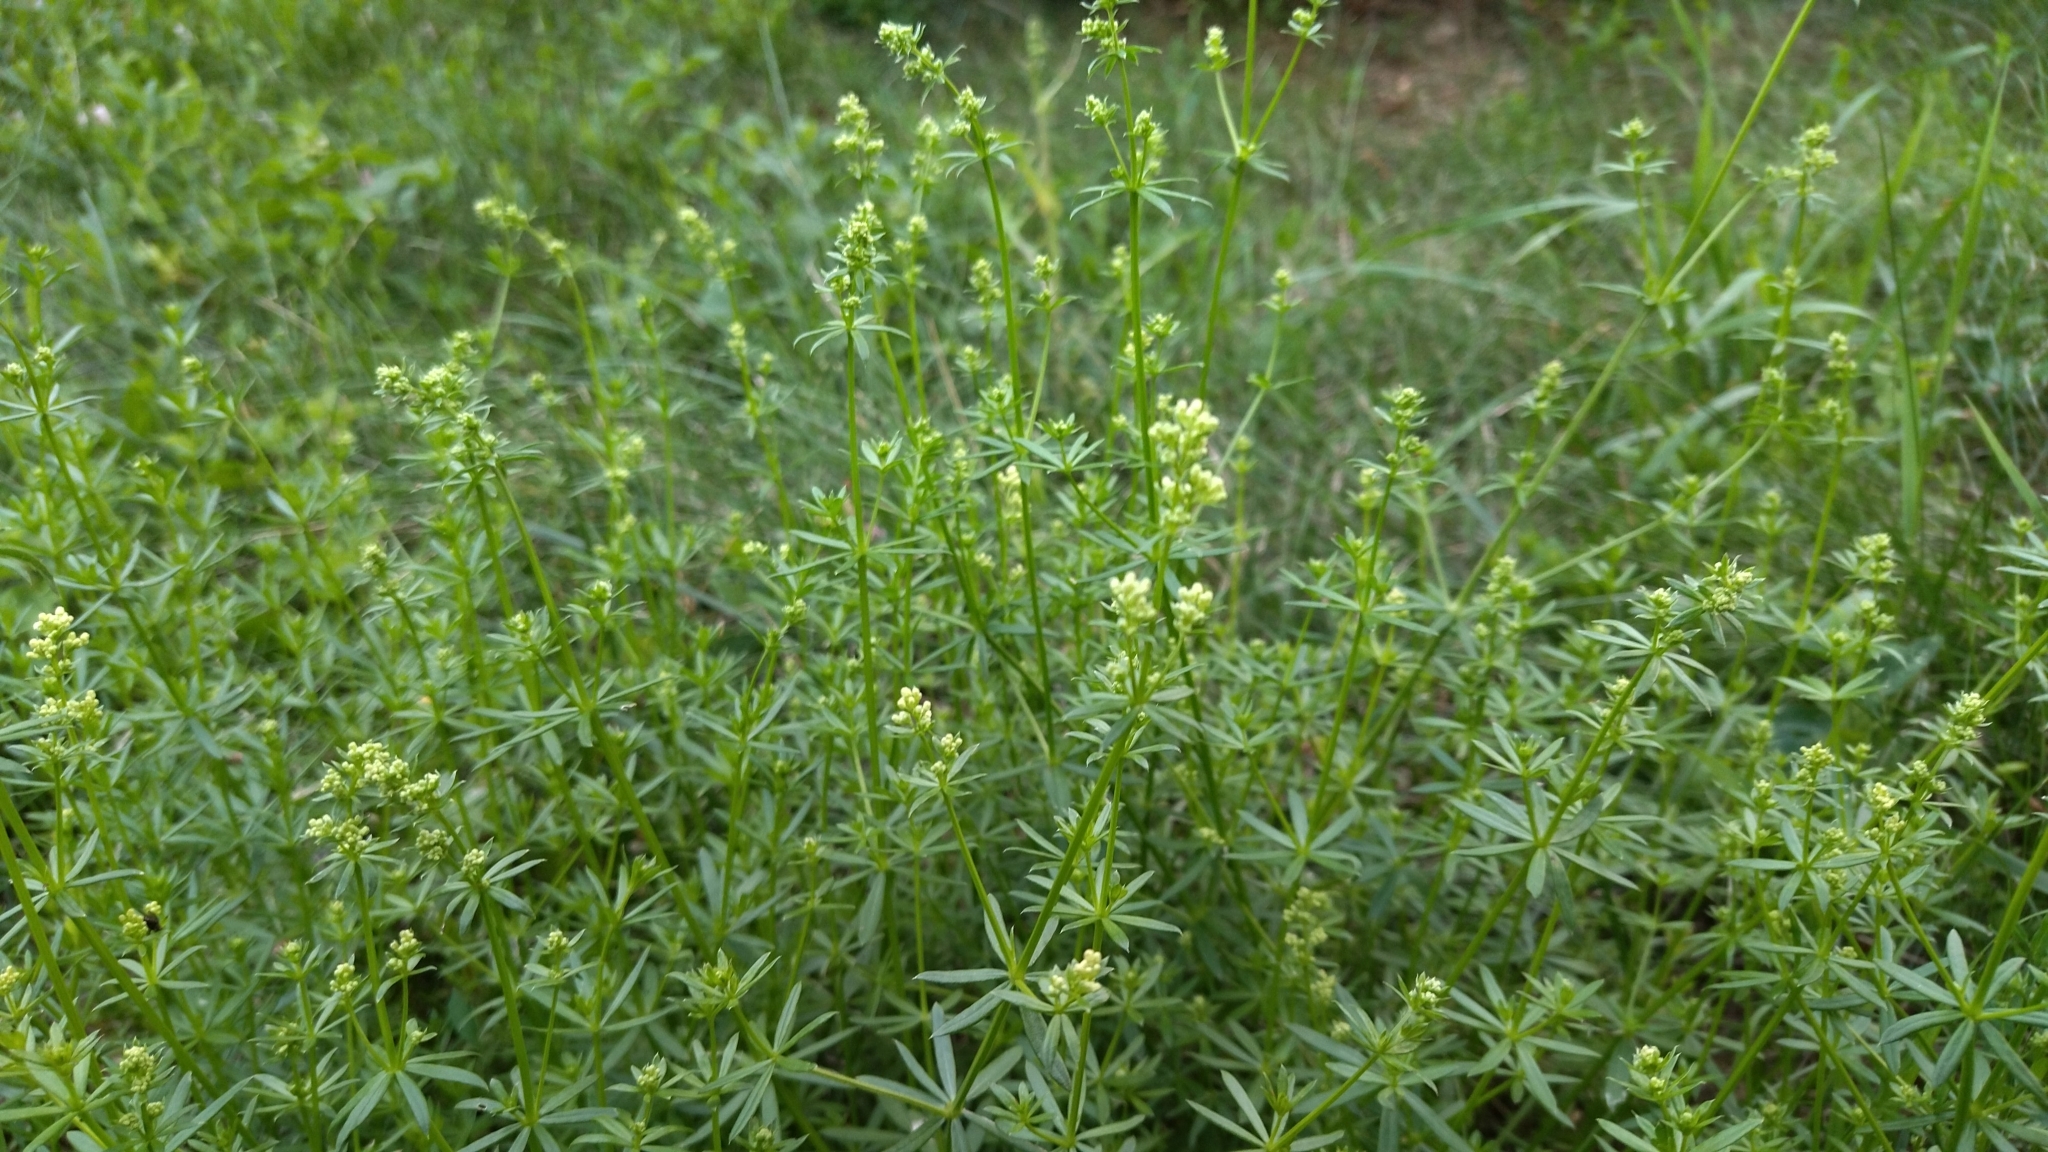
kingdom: Plantae
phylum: Tracheophyta
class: Magnoliopsida
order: Gentianales
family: Rubiaceae
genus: Galium
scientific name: Galium mollugo
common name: Hedge bedstraw
